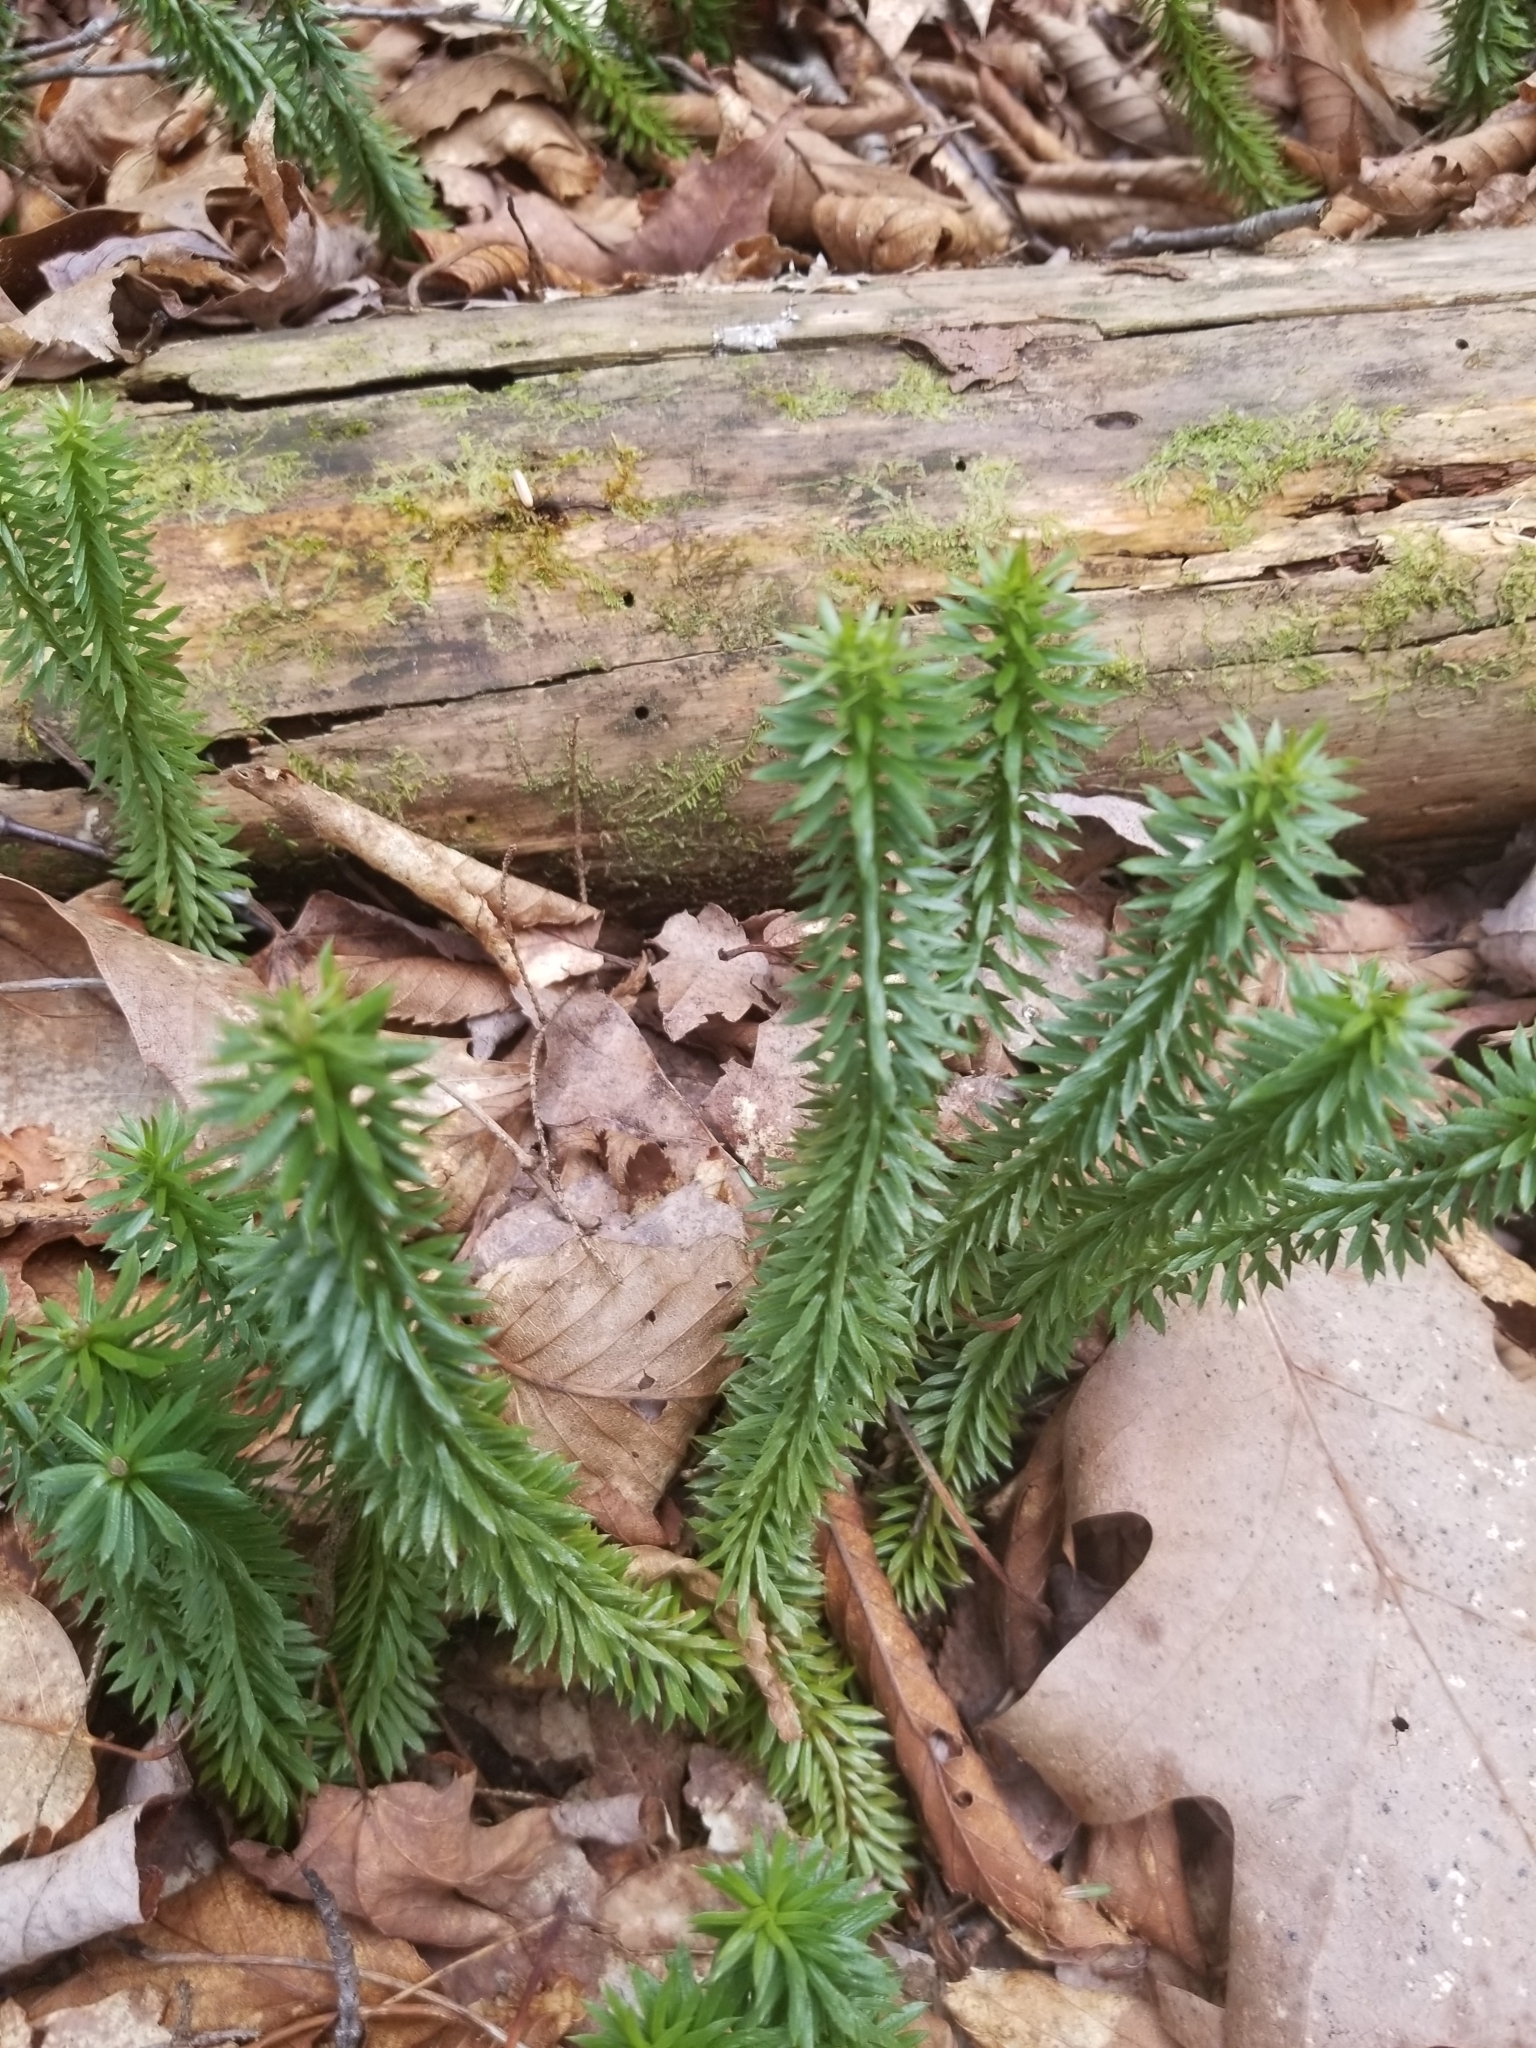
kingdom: Plantae
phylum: Tracheophyta
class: Lycopodiopsida
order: Lycopodiales
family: Lycopodiaceae
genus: Huperzia
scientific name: Huperzia lucidula
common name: Shining clubmoss
